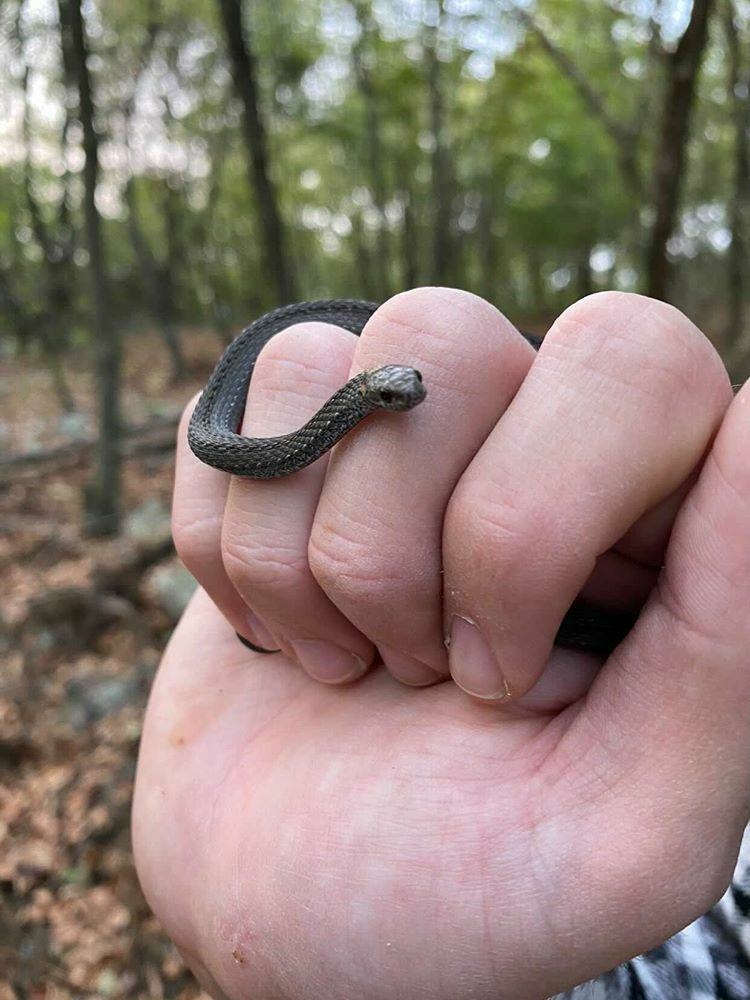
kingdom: Animalia
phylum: Chordata
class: Squamata
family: Colubridae
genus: Storeria
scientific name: Storeria occipitomaculata
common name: Redbelly snake
